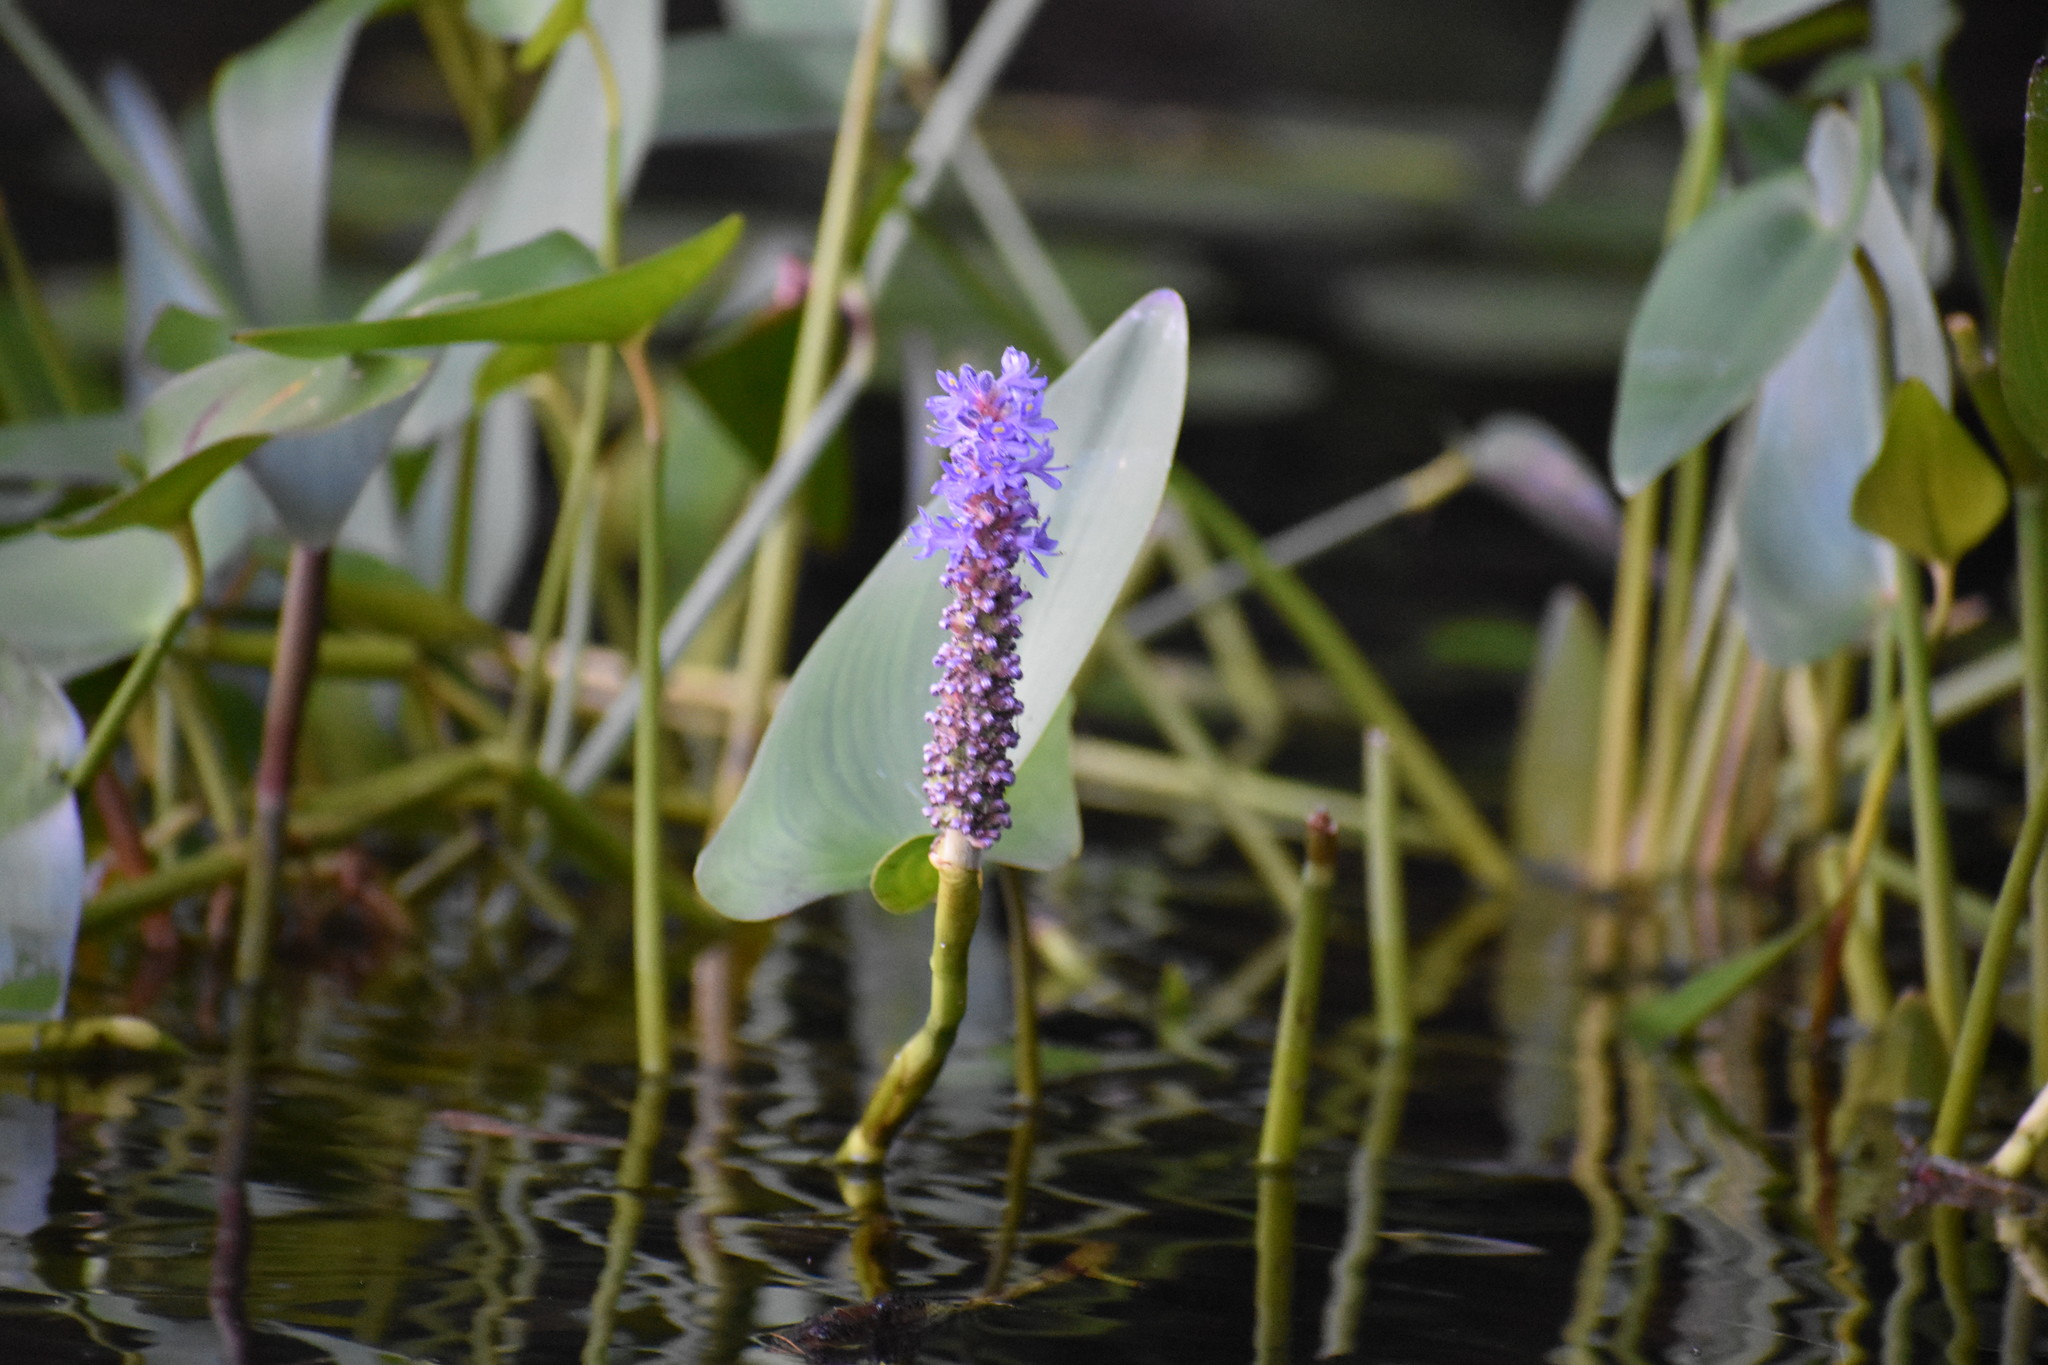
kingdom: Plantae
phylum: Tracheophyta
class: Liliopsida
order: Commelinales
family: Pontederiaceae
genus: Pontederia
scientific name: Pontederia cordata
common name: Pickerelweed
